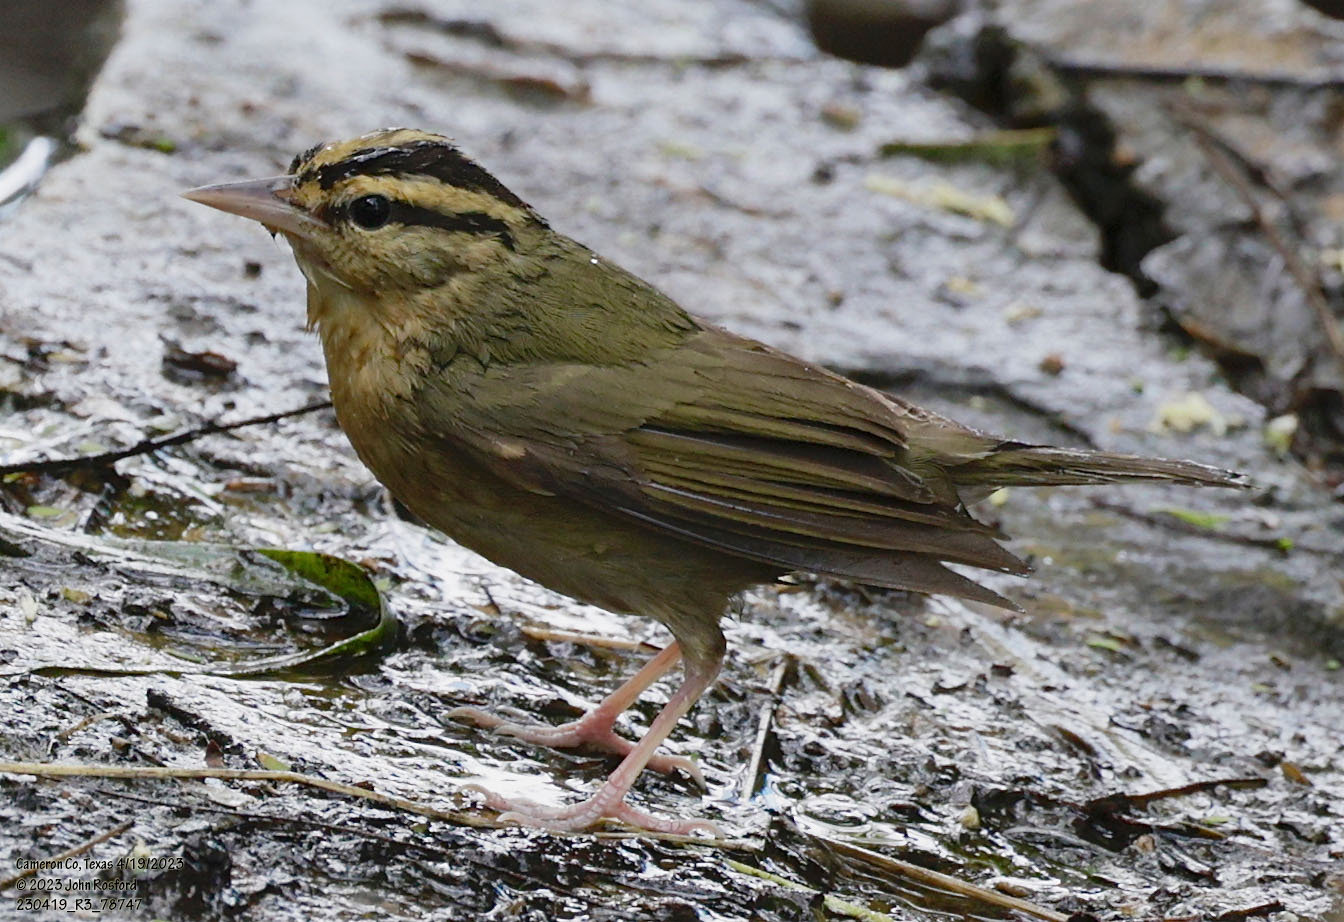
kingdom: Animalia
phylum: Chordata
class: Aves
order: Passeriformes
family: Parulidae
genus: Helmitheros
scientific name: Helmitheros vermivorum
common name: Worm-eating warbler
